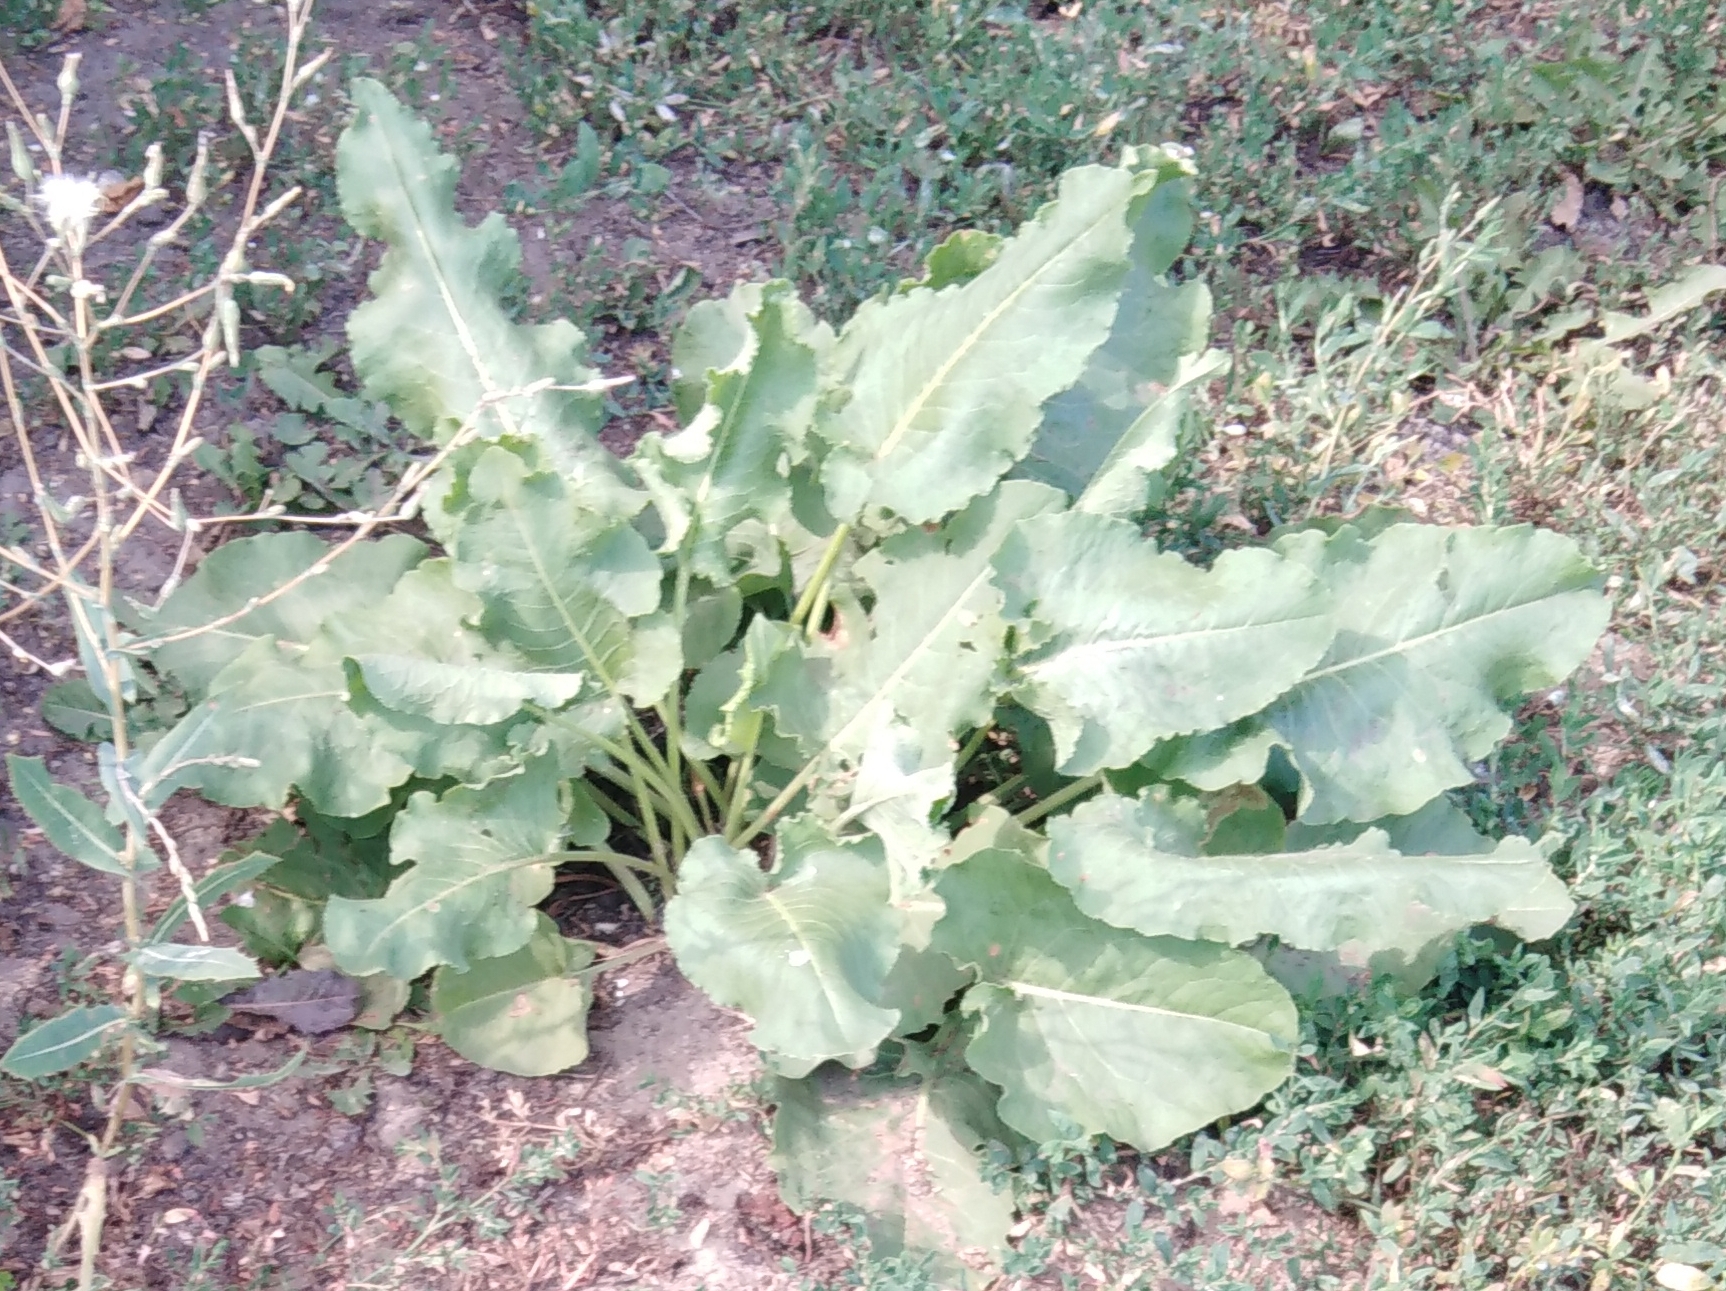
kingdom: Plantae
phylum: Tracheophyta
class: Magnoliopsida
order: Caryophyllales
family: Polygonaceae
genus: Rumex
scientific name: Rumex confertus
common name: Russian dock
